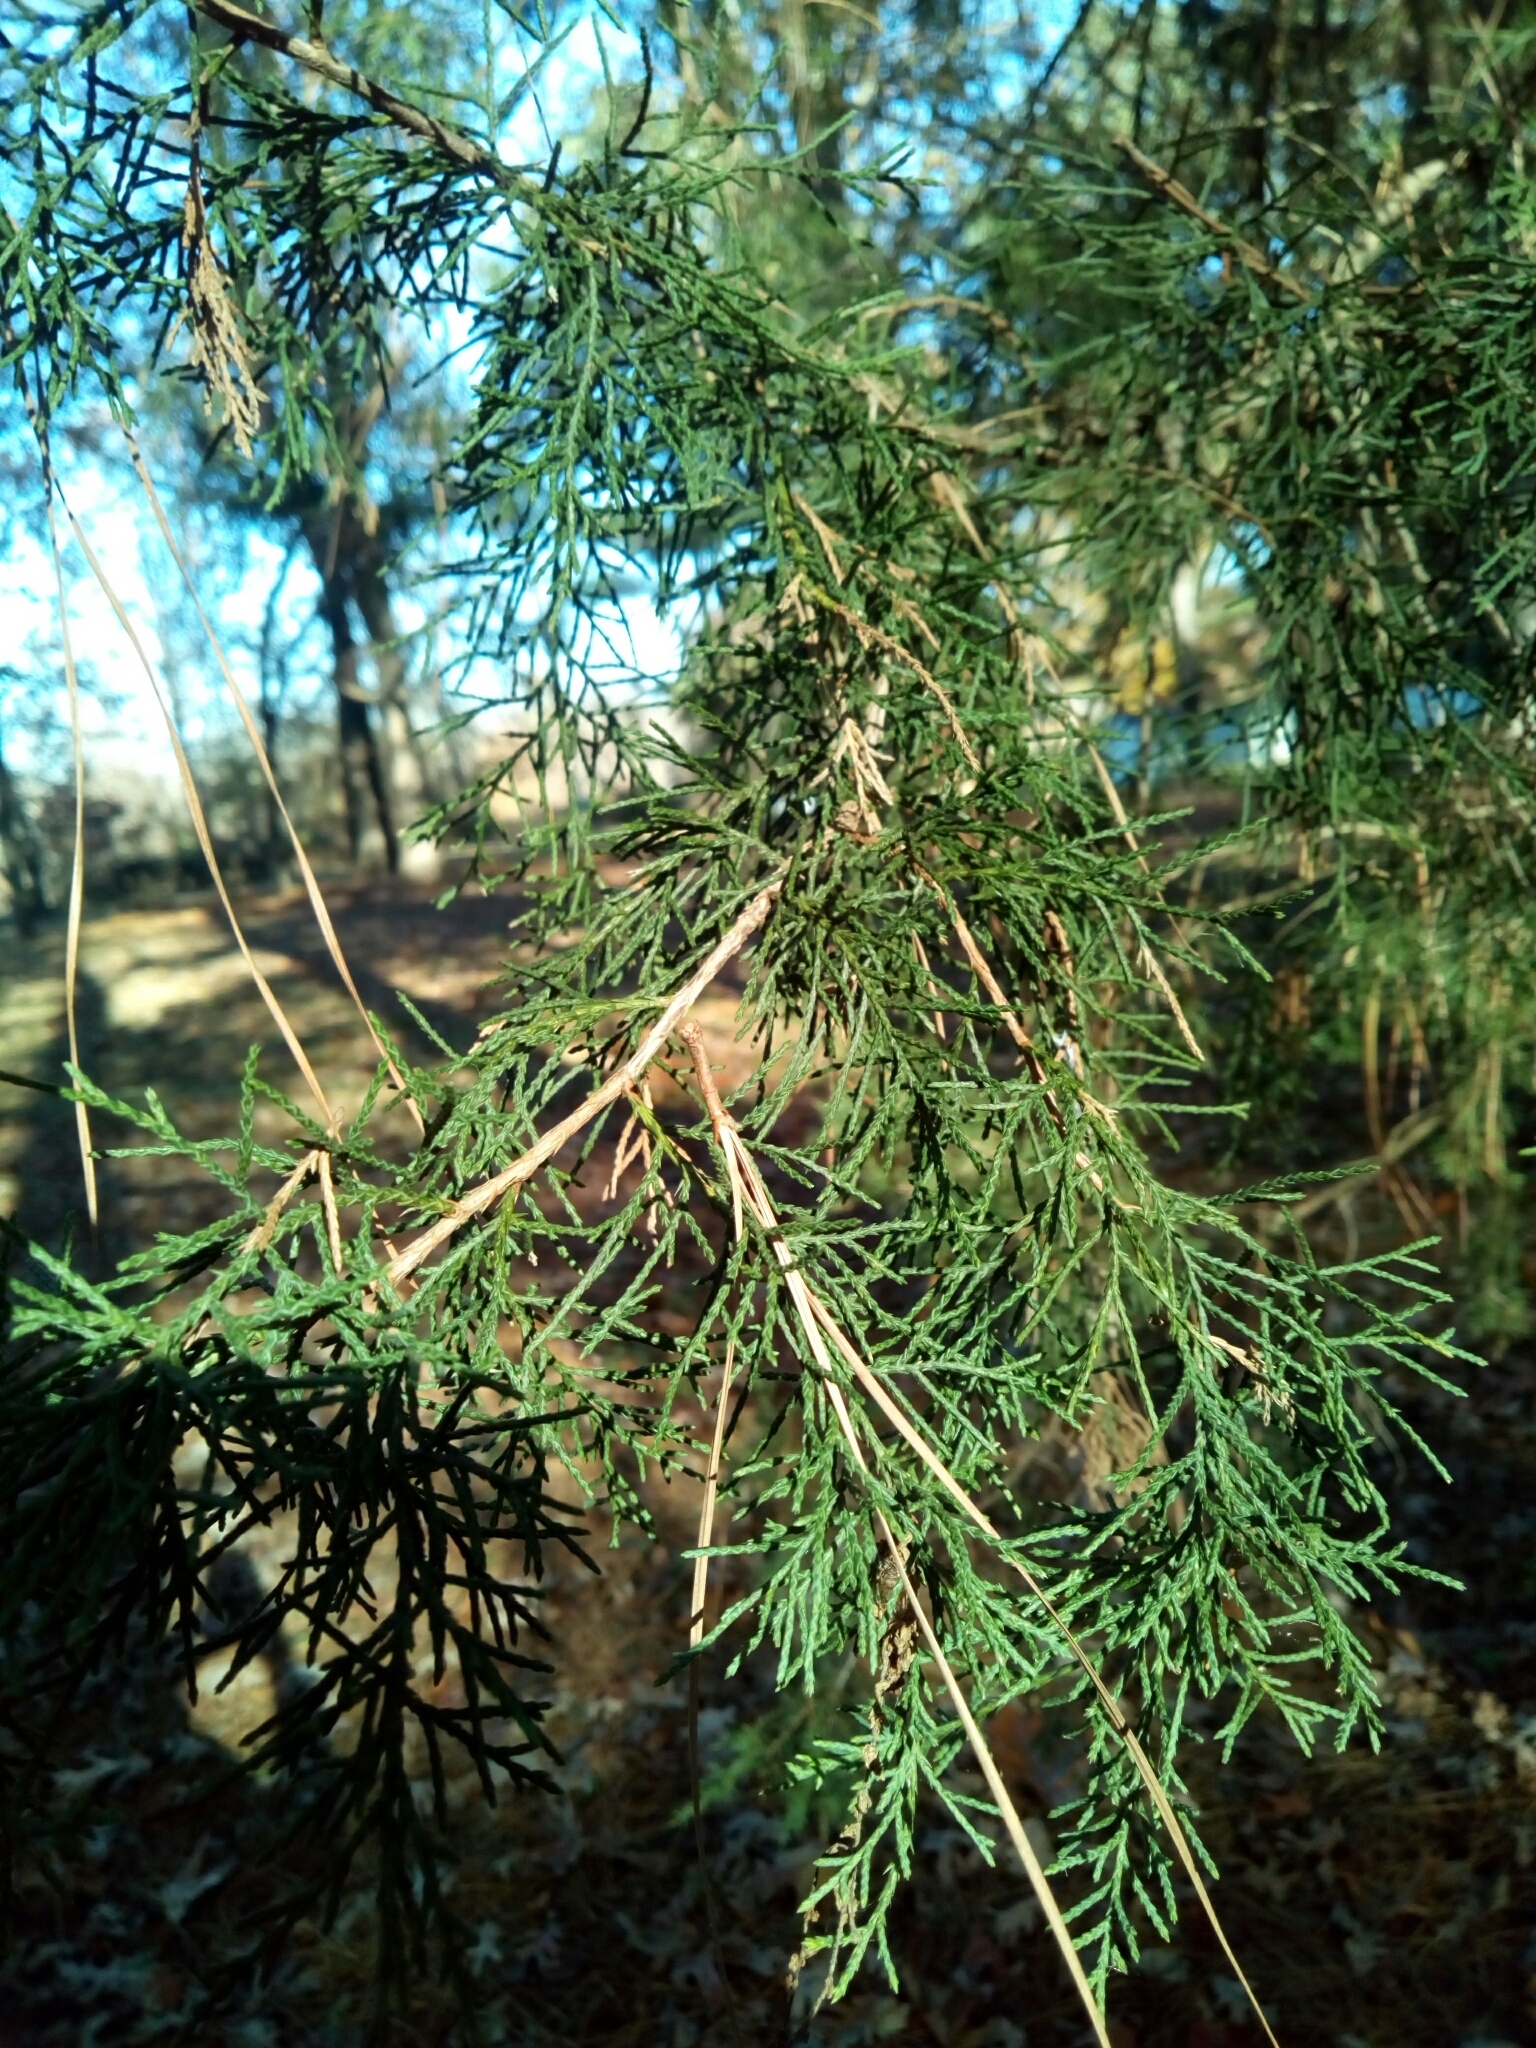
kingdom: Plantae
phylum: Tracheophyta
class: Pinopsida
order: Pinales
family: Cupressaceae
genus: Juniperus
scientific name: Juniperus virginiana
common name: Red juniper
